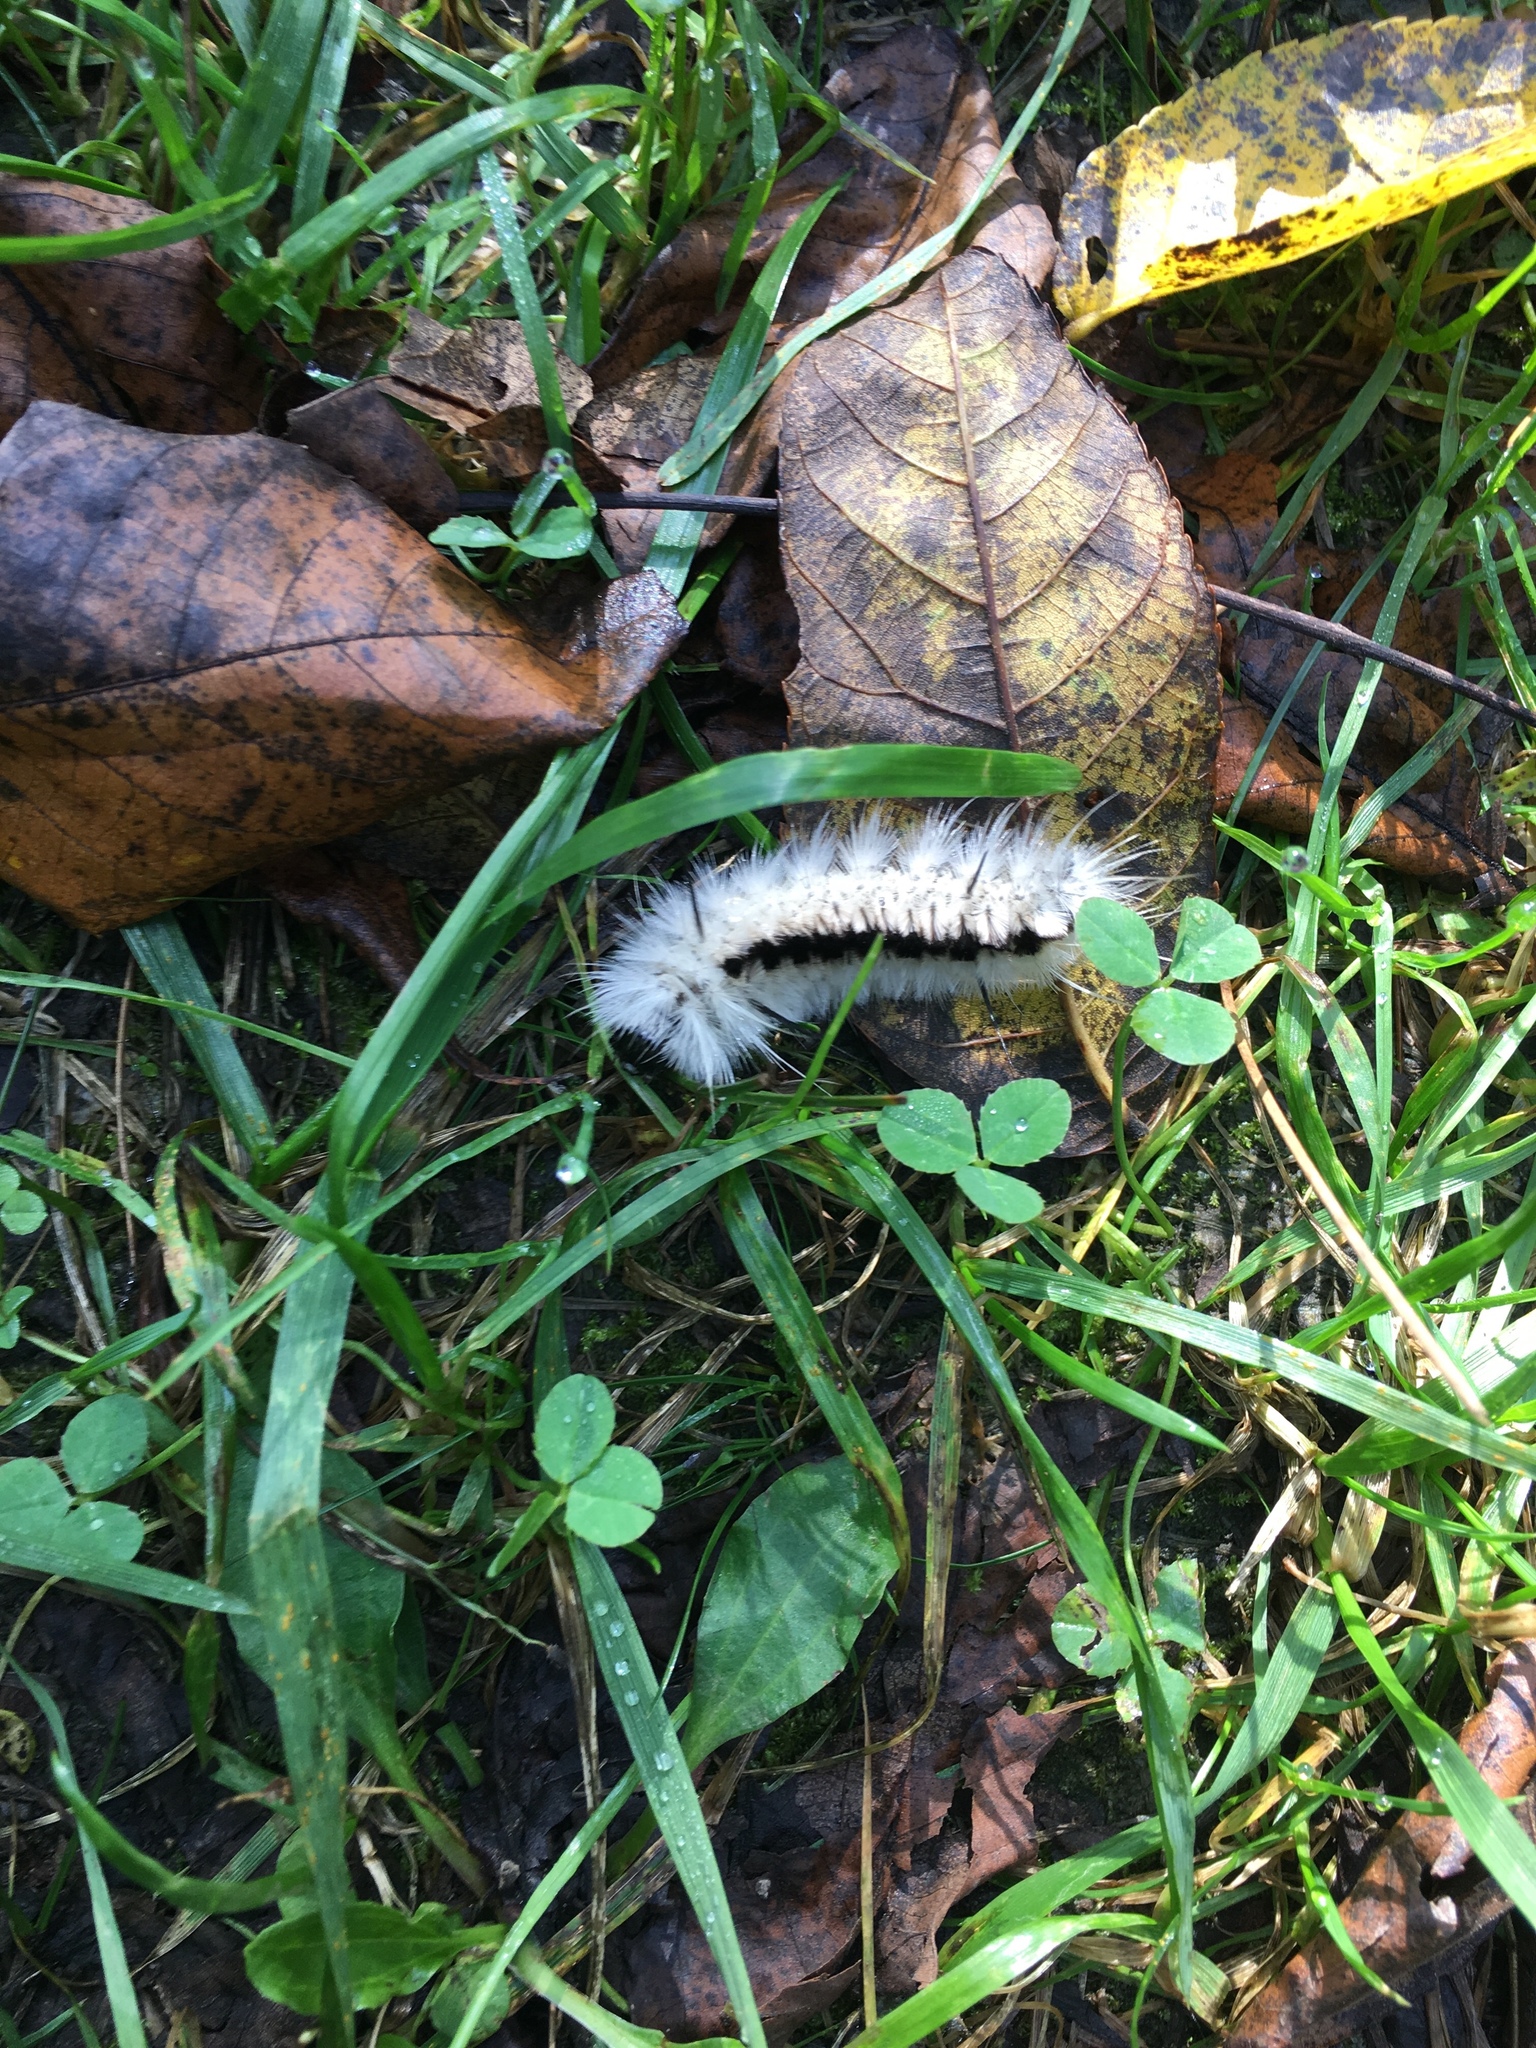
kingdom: Animalia
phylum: Arthropoda
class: Insecta
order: Lepidoptera
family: Erebidae
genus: Lophocampa
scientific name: Lophocampa caryae
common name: Hickory tussock moth
